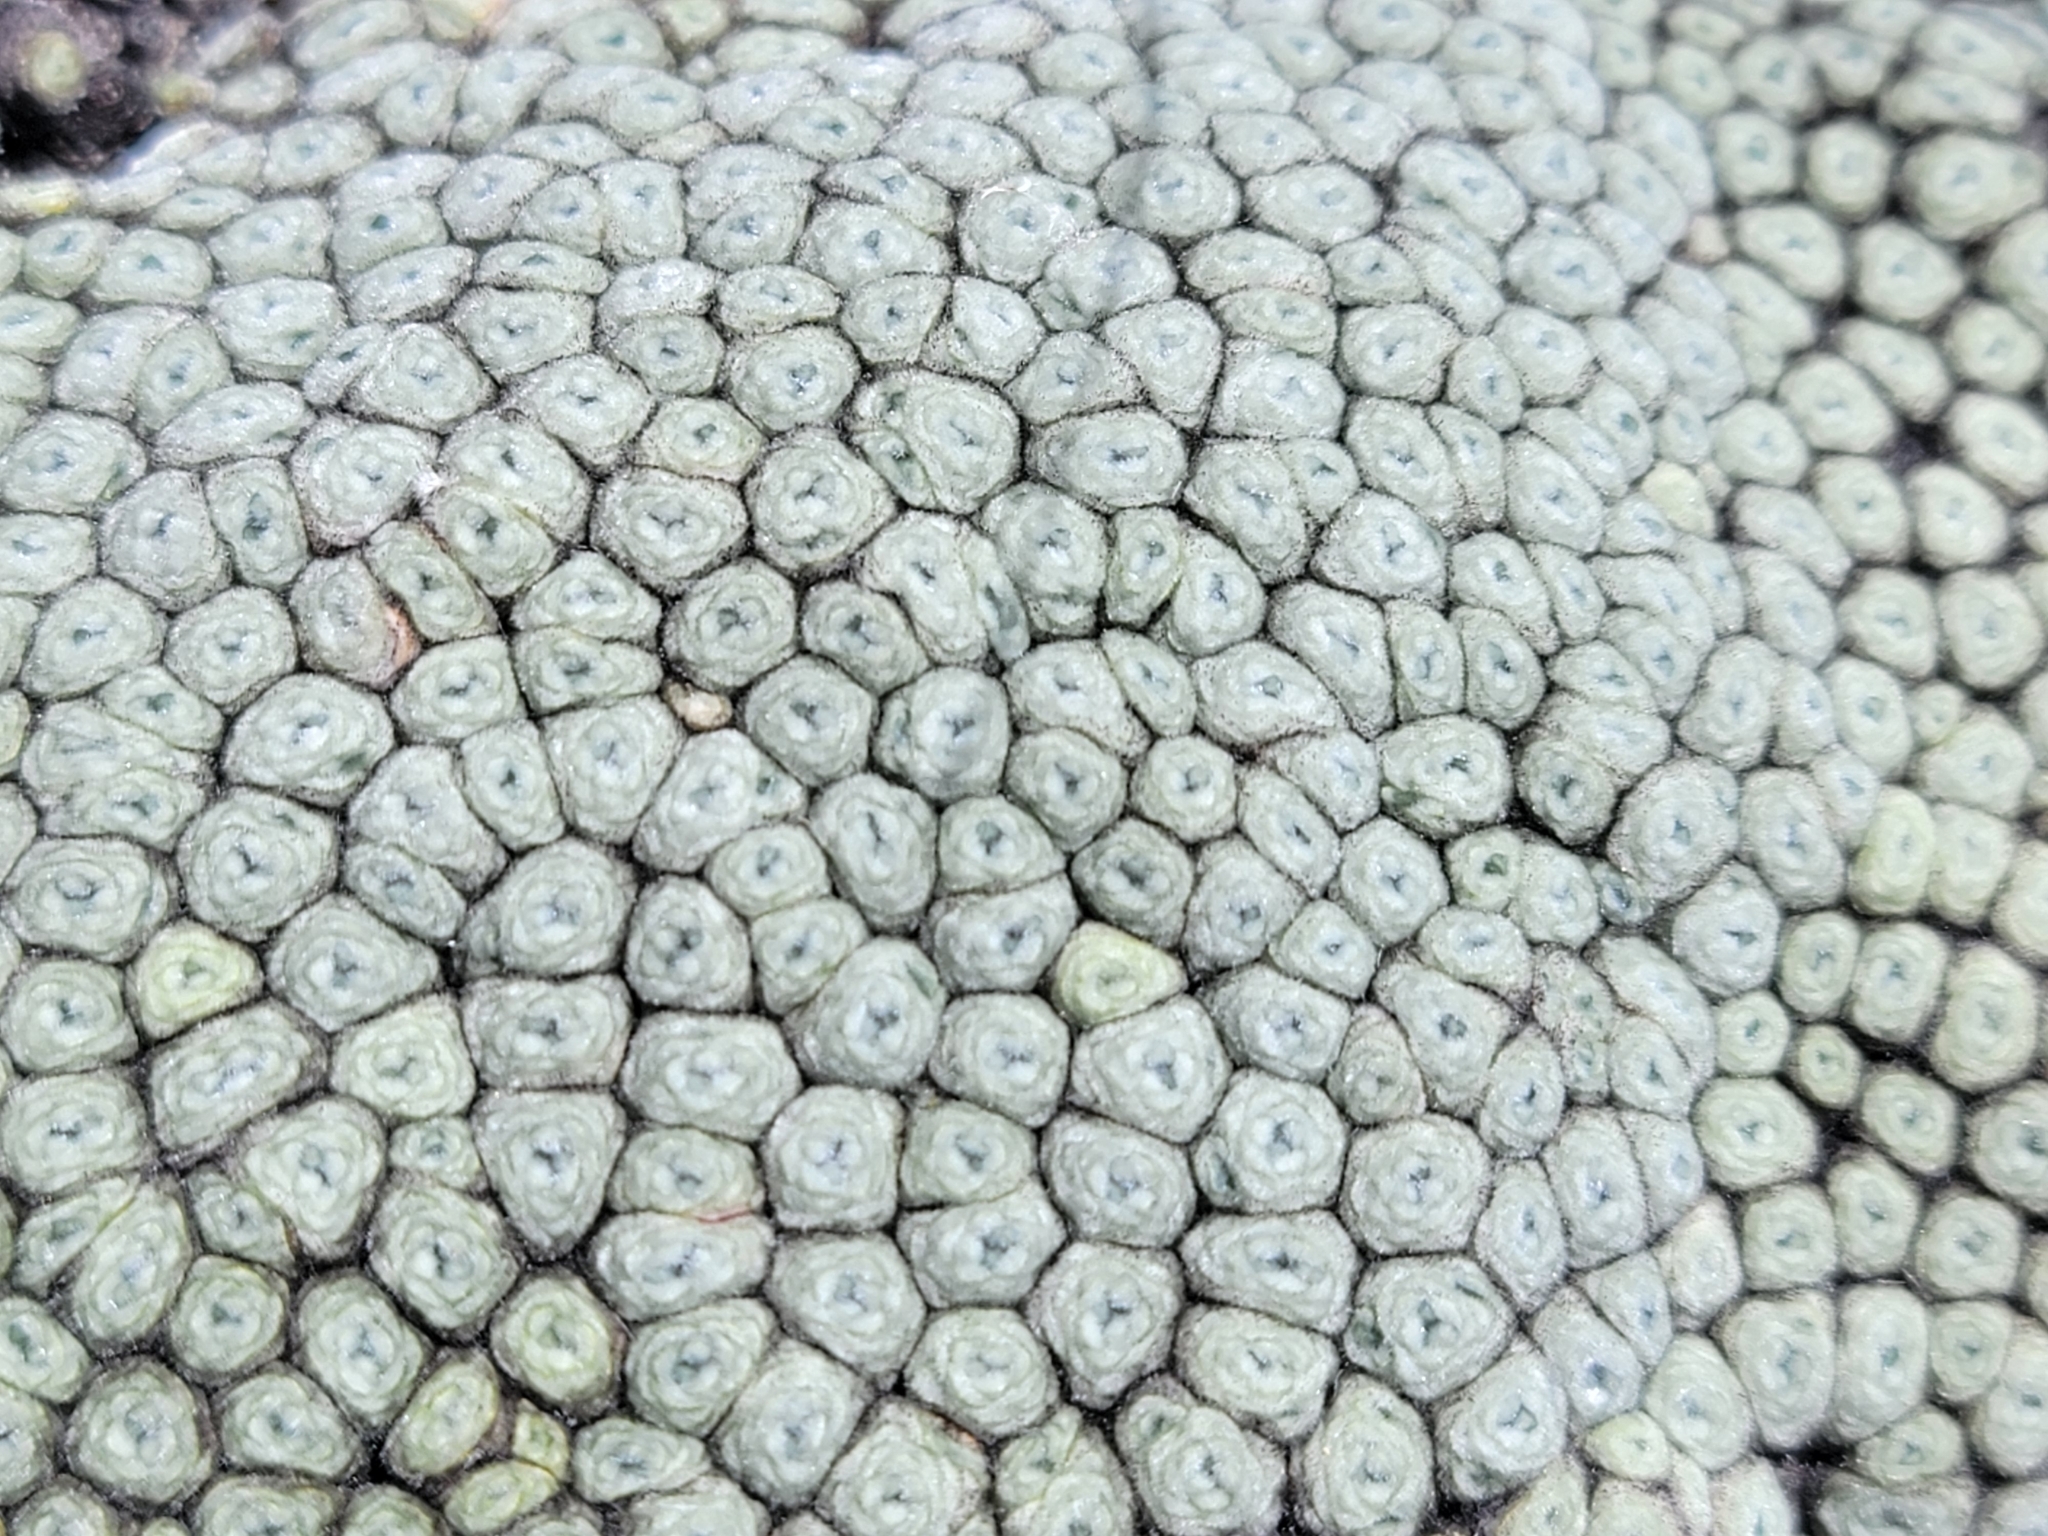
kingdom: Plantae
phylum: Tracheophyta
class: Magnoliopsida
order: Asterales
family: Asteraceae
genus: Raoulia
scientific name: Raoulia eximia
